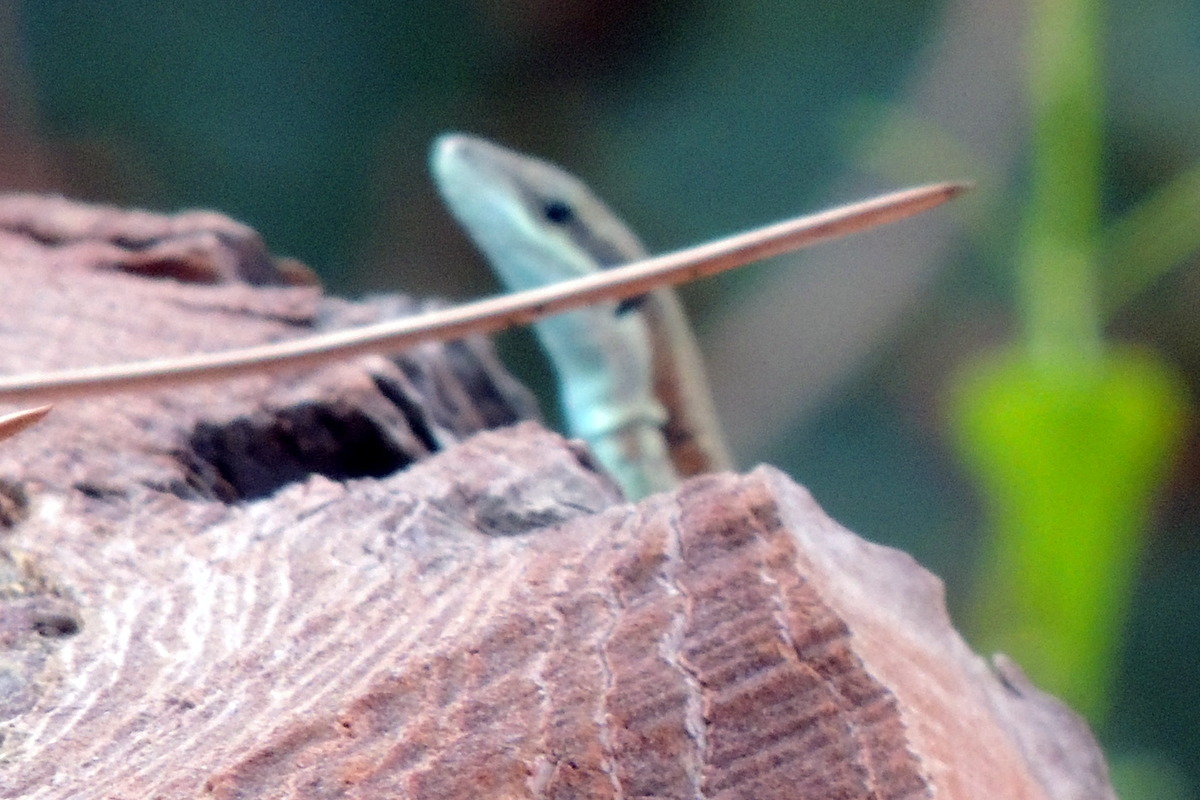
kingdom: Animalia
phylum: Chordata
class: Squamata
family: Lacertidae
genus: Phoenicolacerta
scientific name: Phoenicolacerta laevis
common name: Lebanon lizard
